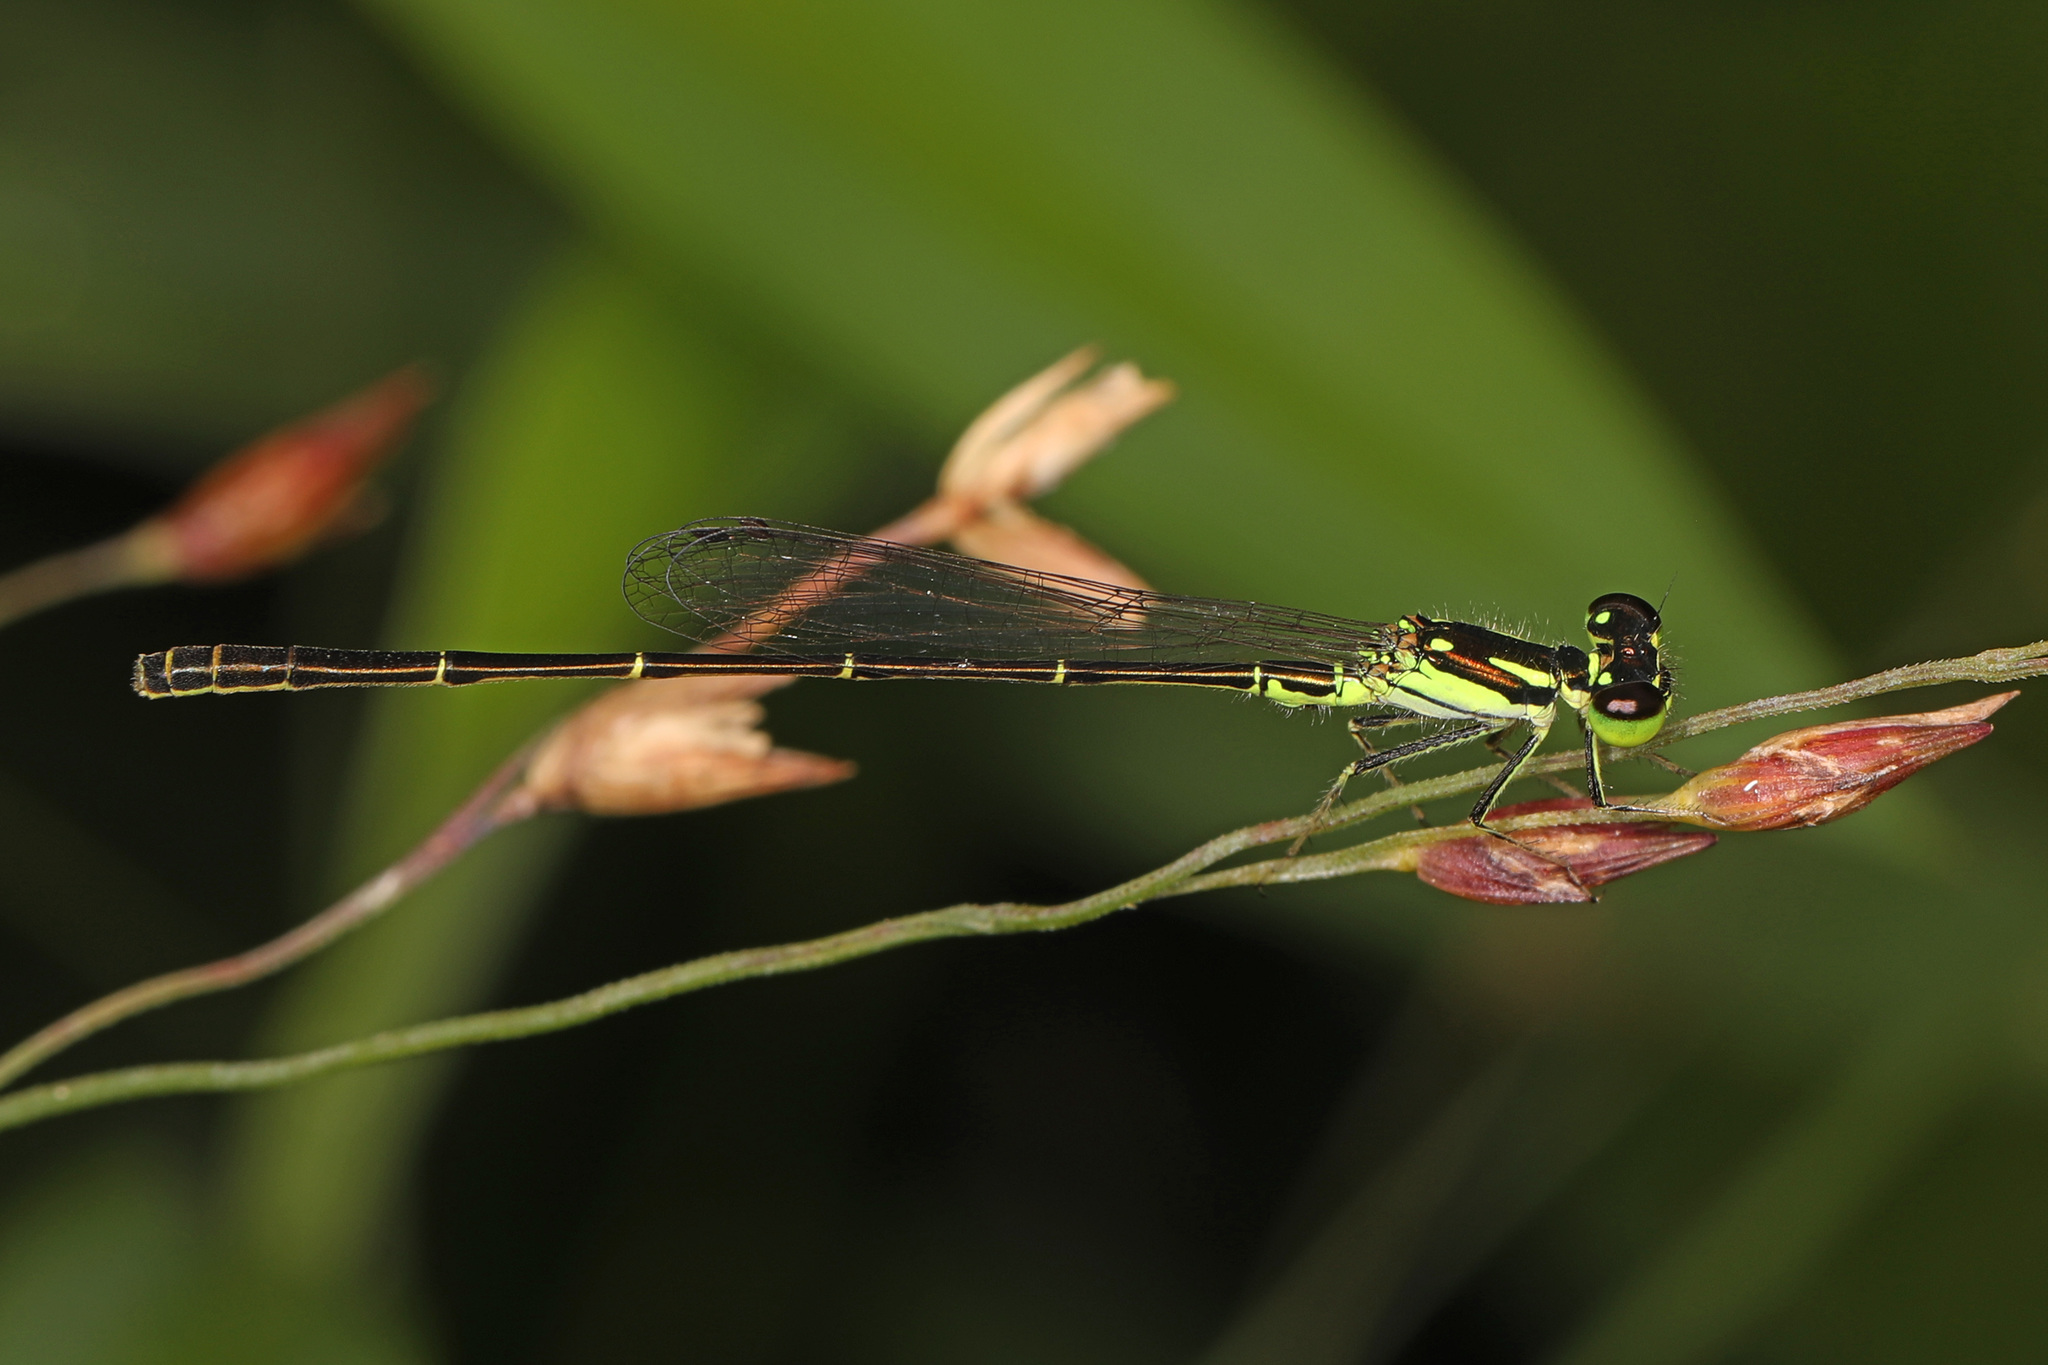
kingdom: Animalia
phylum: Arthropoda
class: Insecta
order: Odonata
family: Coenagrionidae
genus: Ischnura
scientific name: Ischnura posita
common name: Fragile forktail
